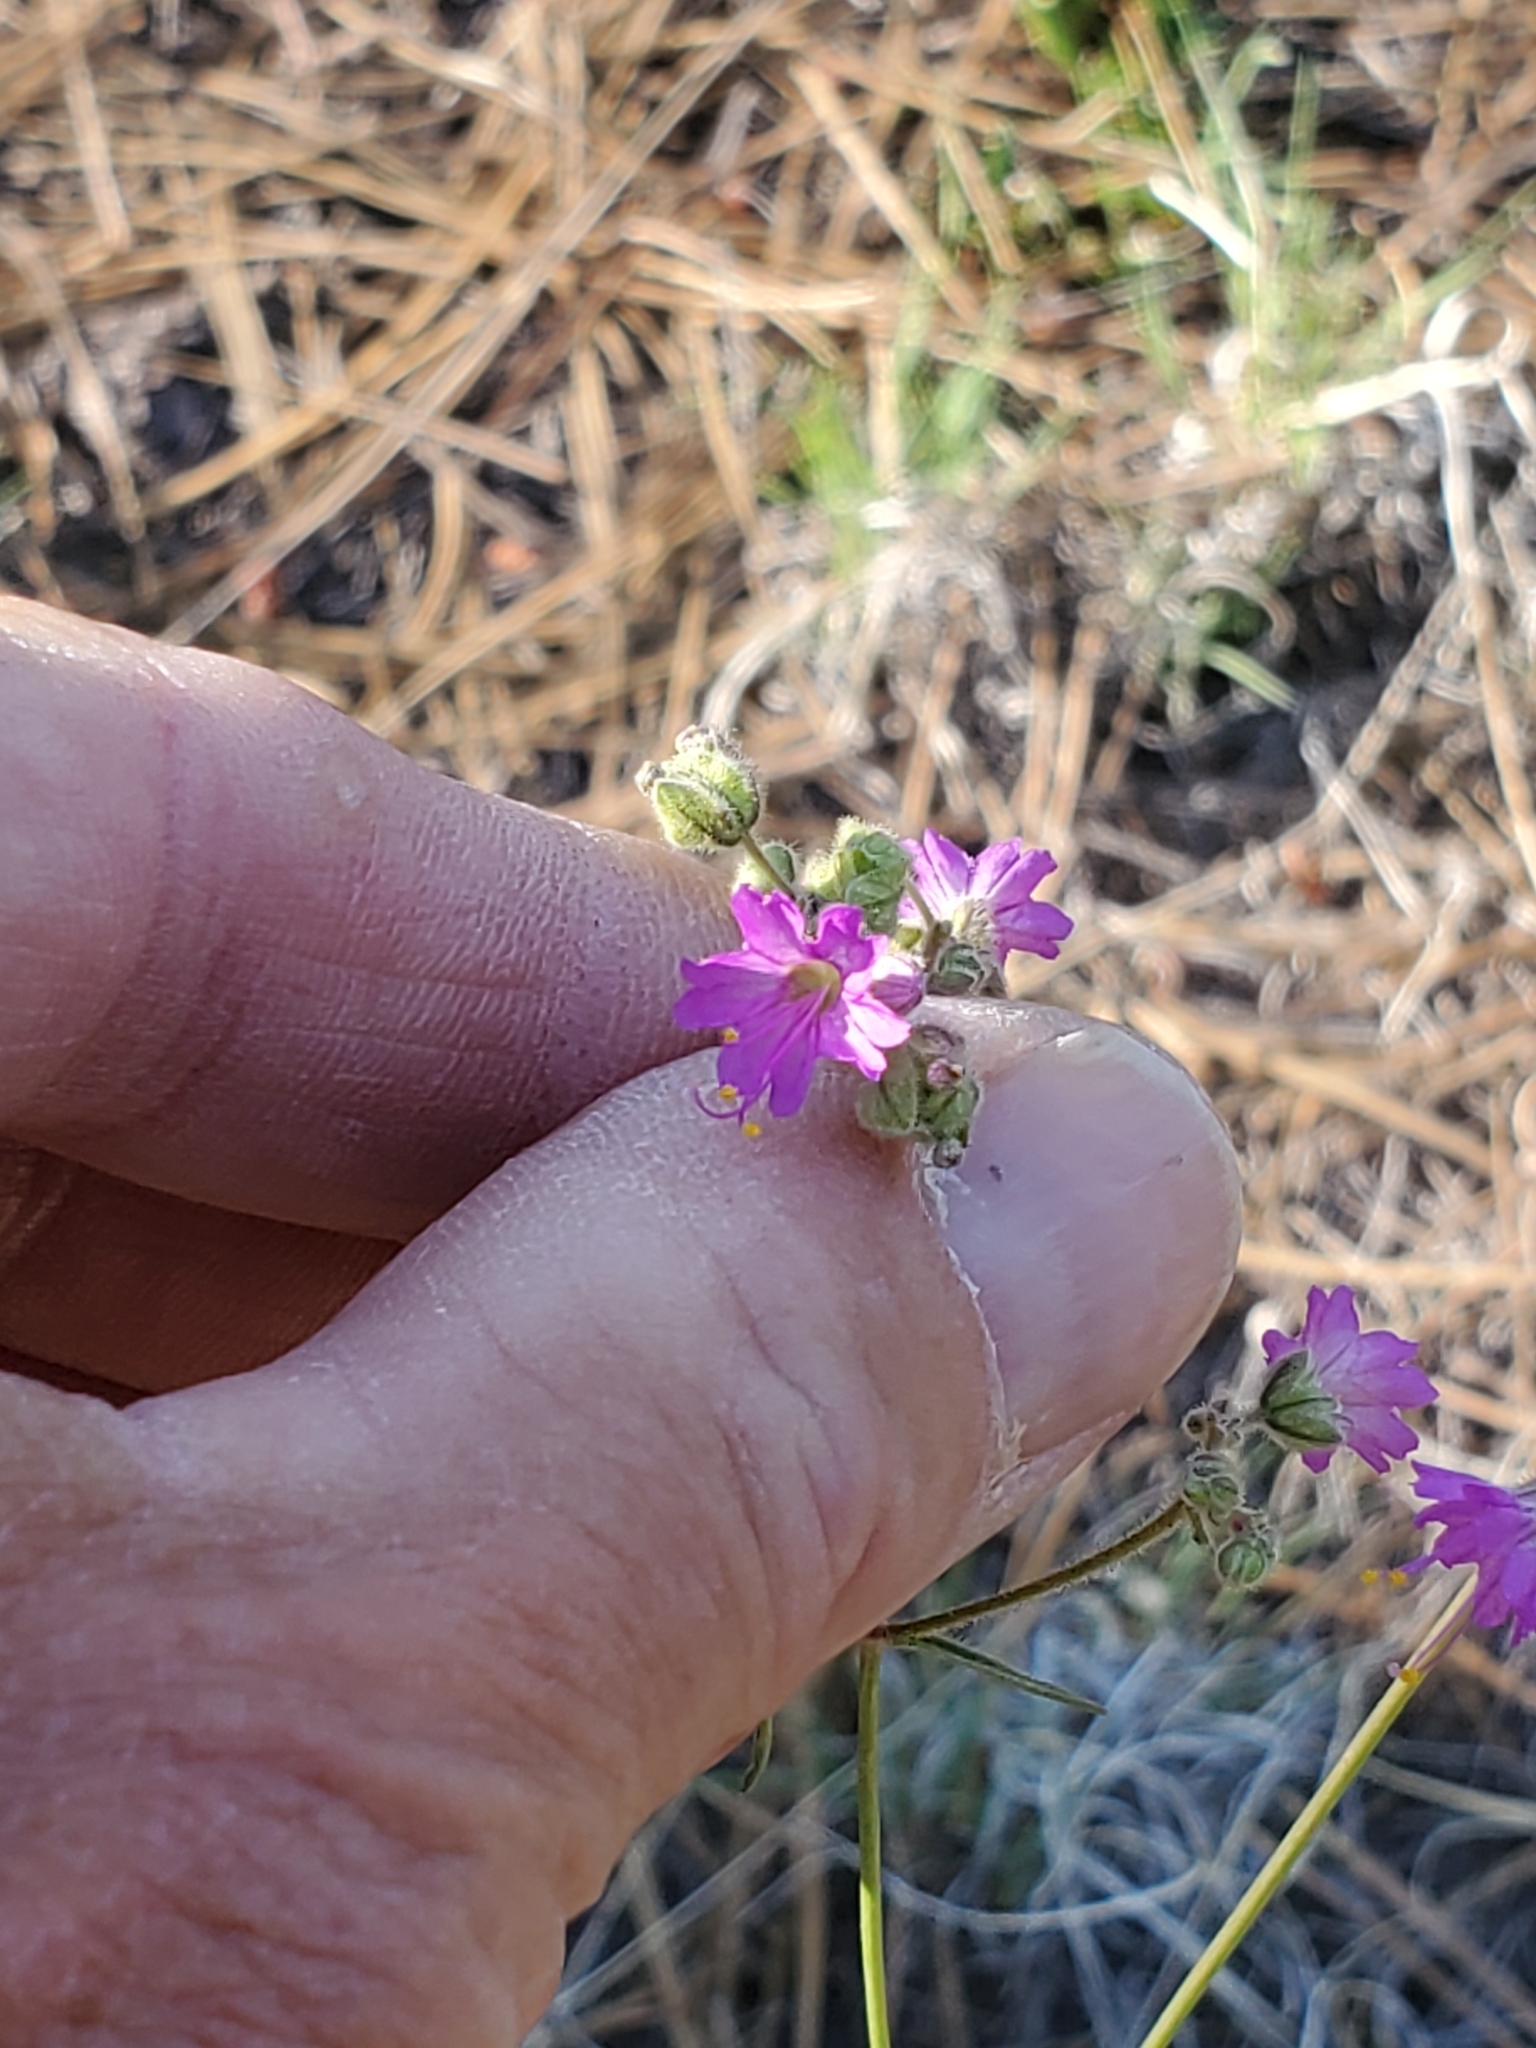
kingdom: Plantae
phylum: Tracheophyta
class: Magnoliopsida
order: Caryophyllales
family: Nyctaginaceae
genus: Mirabilis
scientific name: Mirabilis linearis
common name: Linear-leaved four-o'clock
